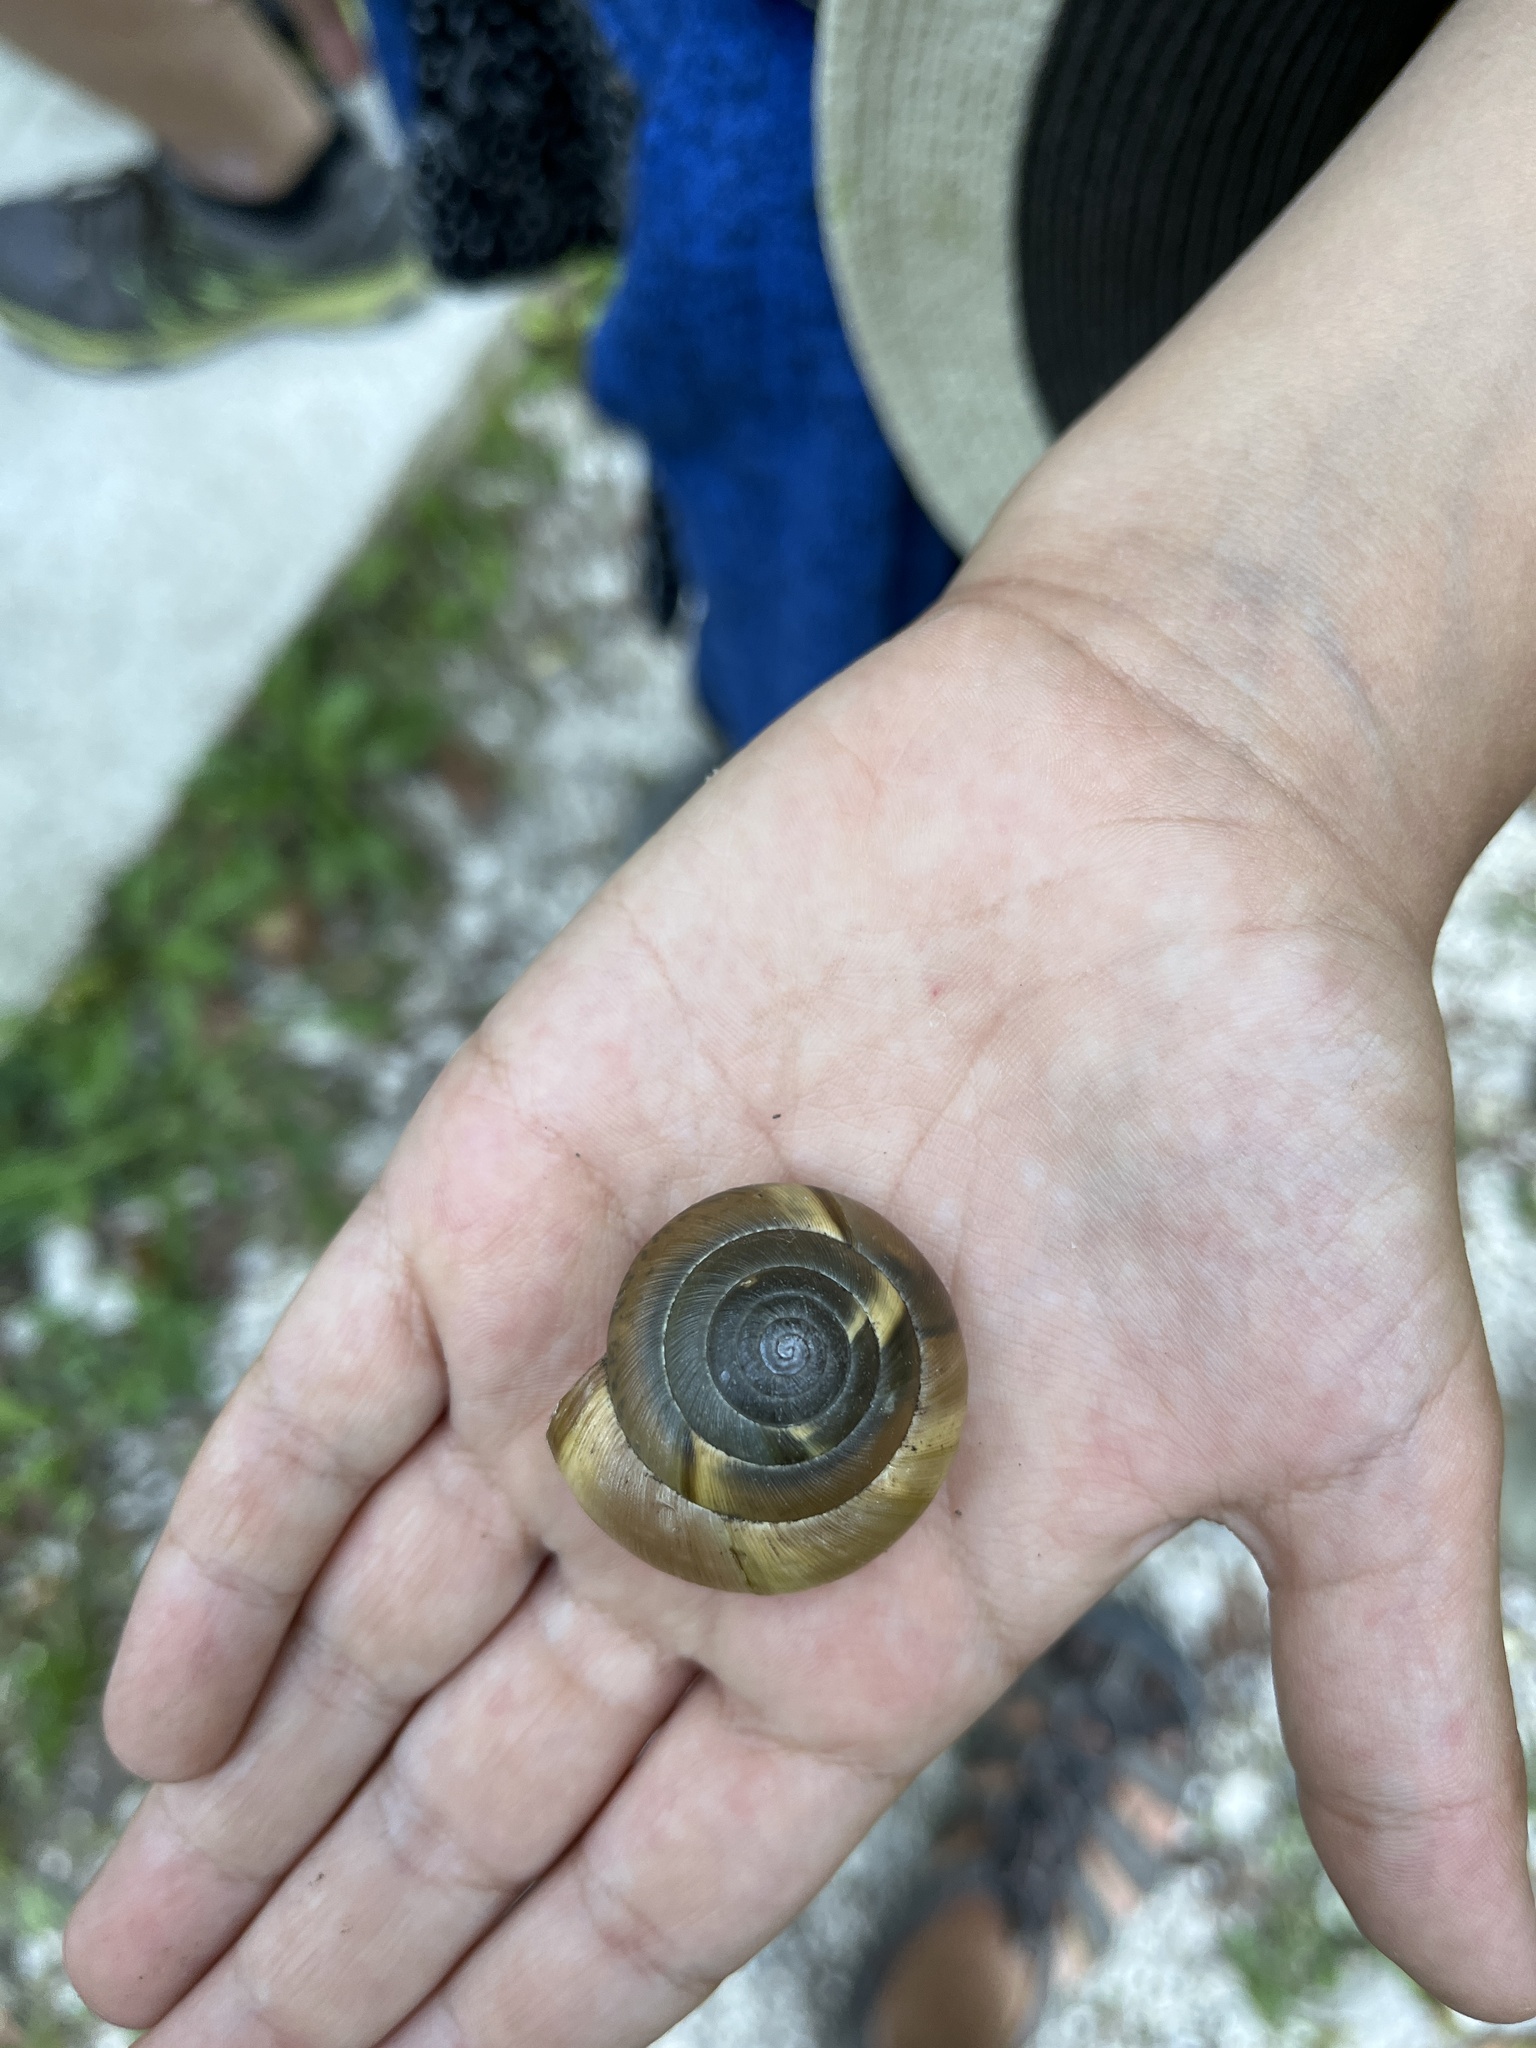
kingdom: Animalia
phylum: Mollusca
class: Gastropoda
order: Stylommatophora
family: Zonitidae
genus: Aegopis
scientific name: Aegopis verticillus
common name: Giant glass snail
